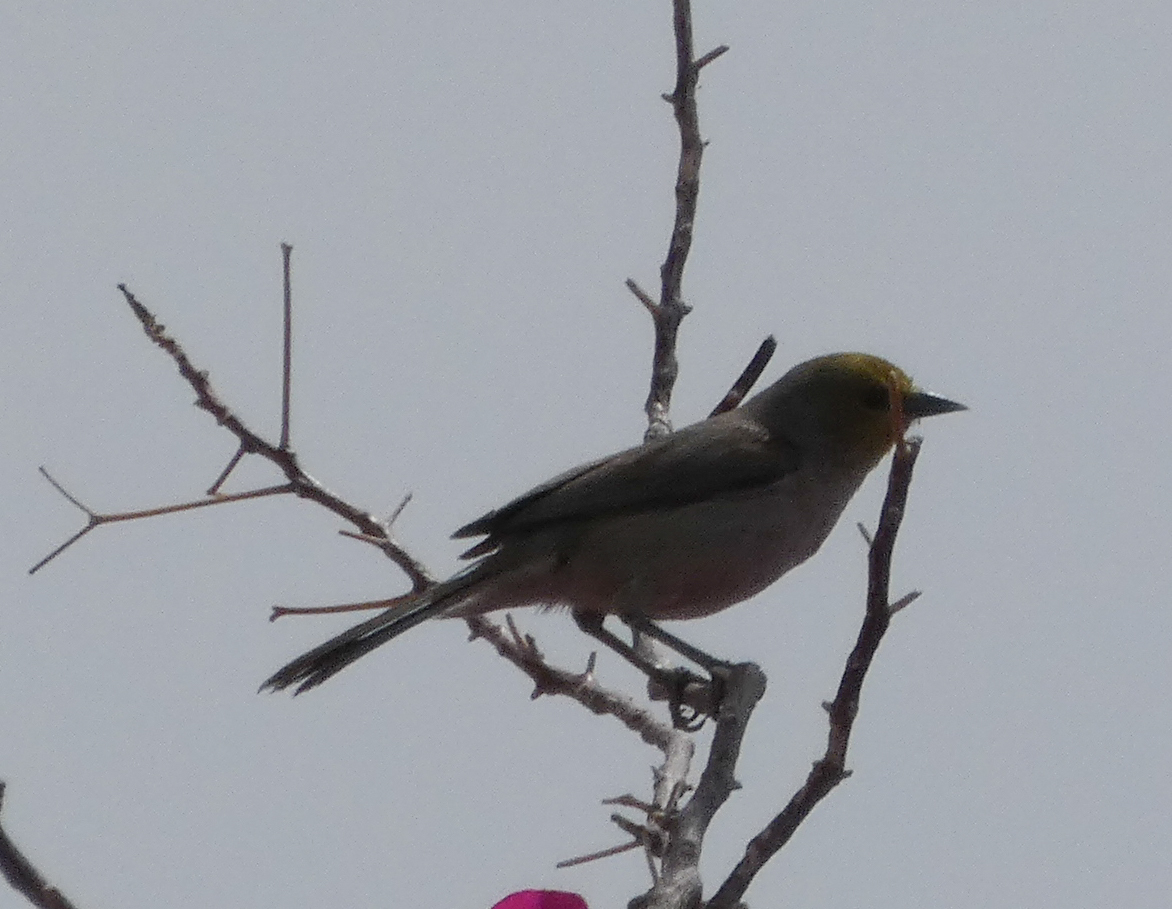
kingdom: Animalia
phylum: Chordata
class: Aves
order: Passeriformes
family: Remizidae
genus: Auriparus
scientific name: Auriparus flaviceps
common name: Verdin
